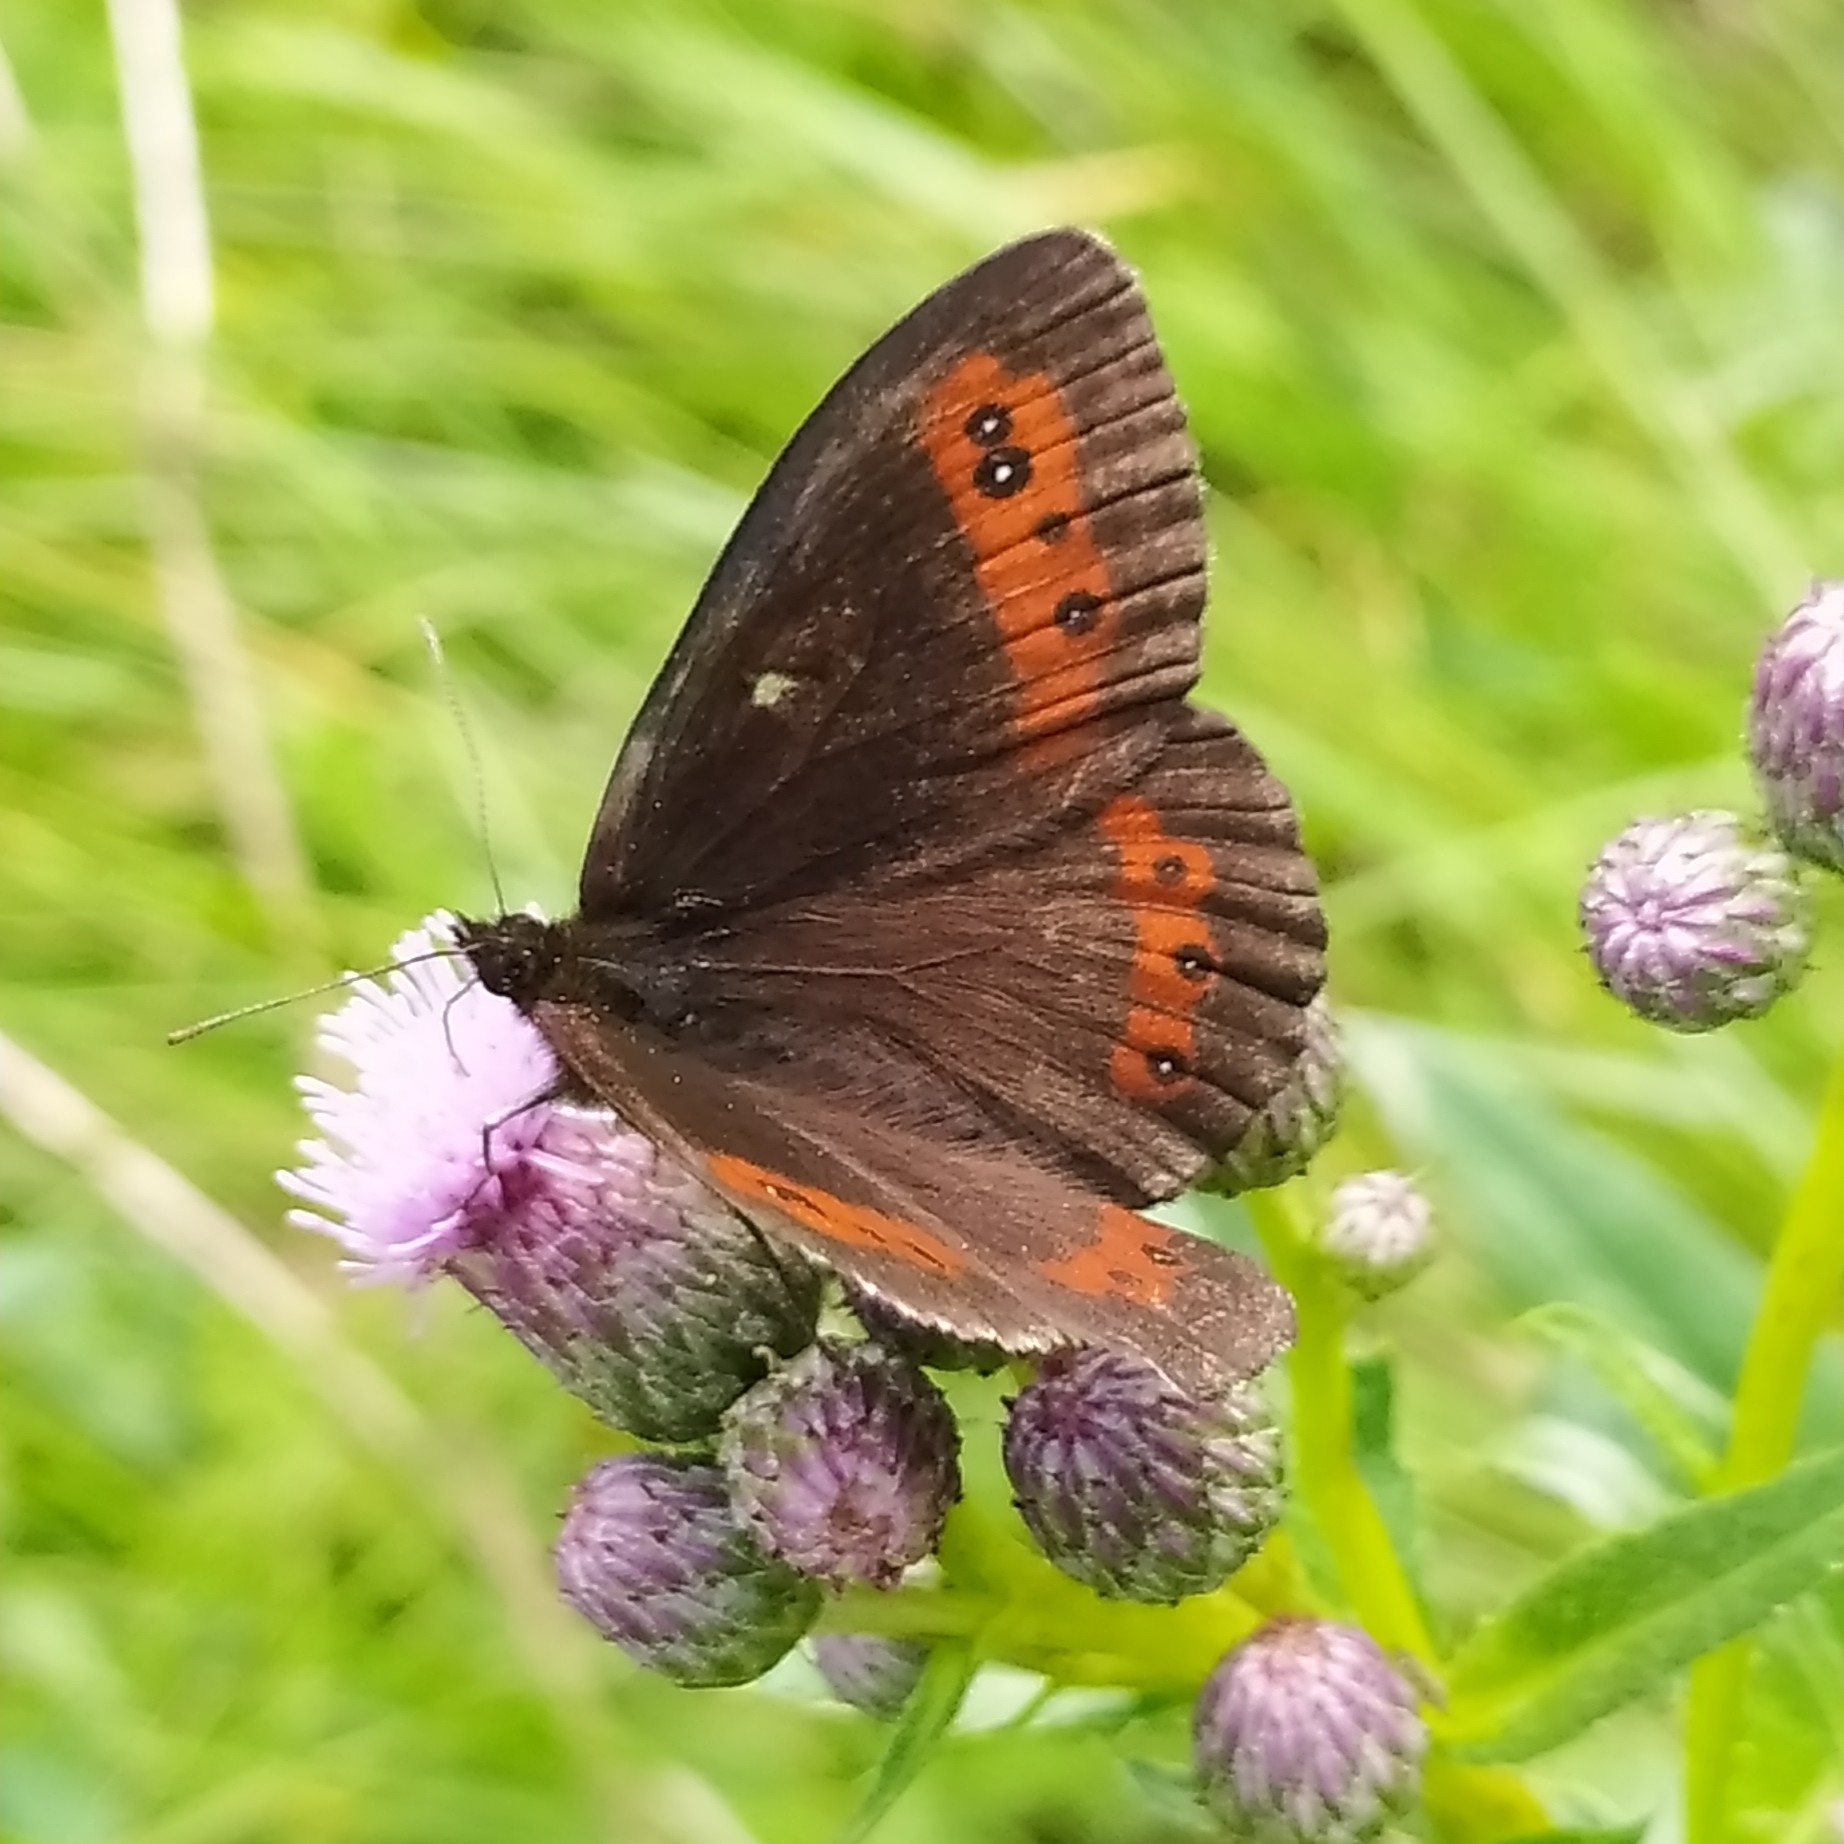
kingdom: Animalia
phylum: Arthropoda
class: Insecta
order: Lepidoptera
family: Nymphalidae
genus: Erebia
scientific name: Erebia ligea
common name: Arran brown
